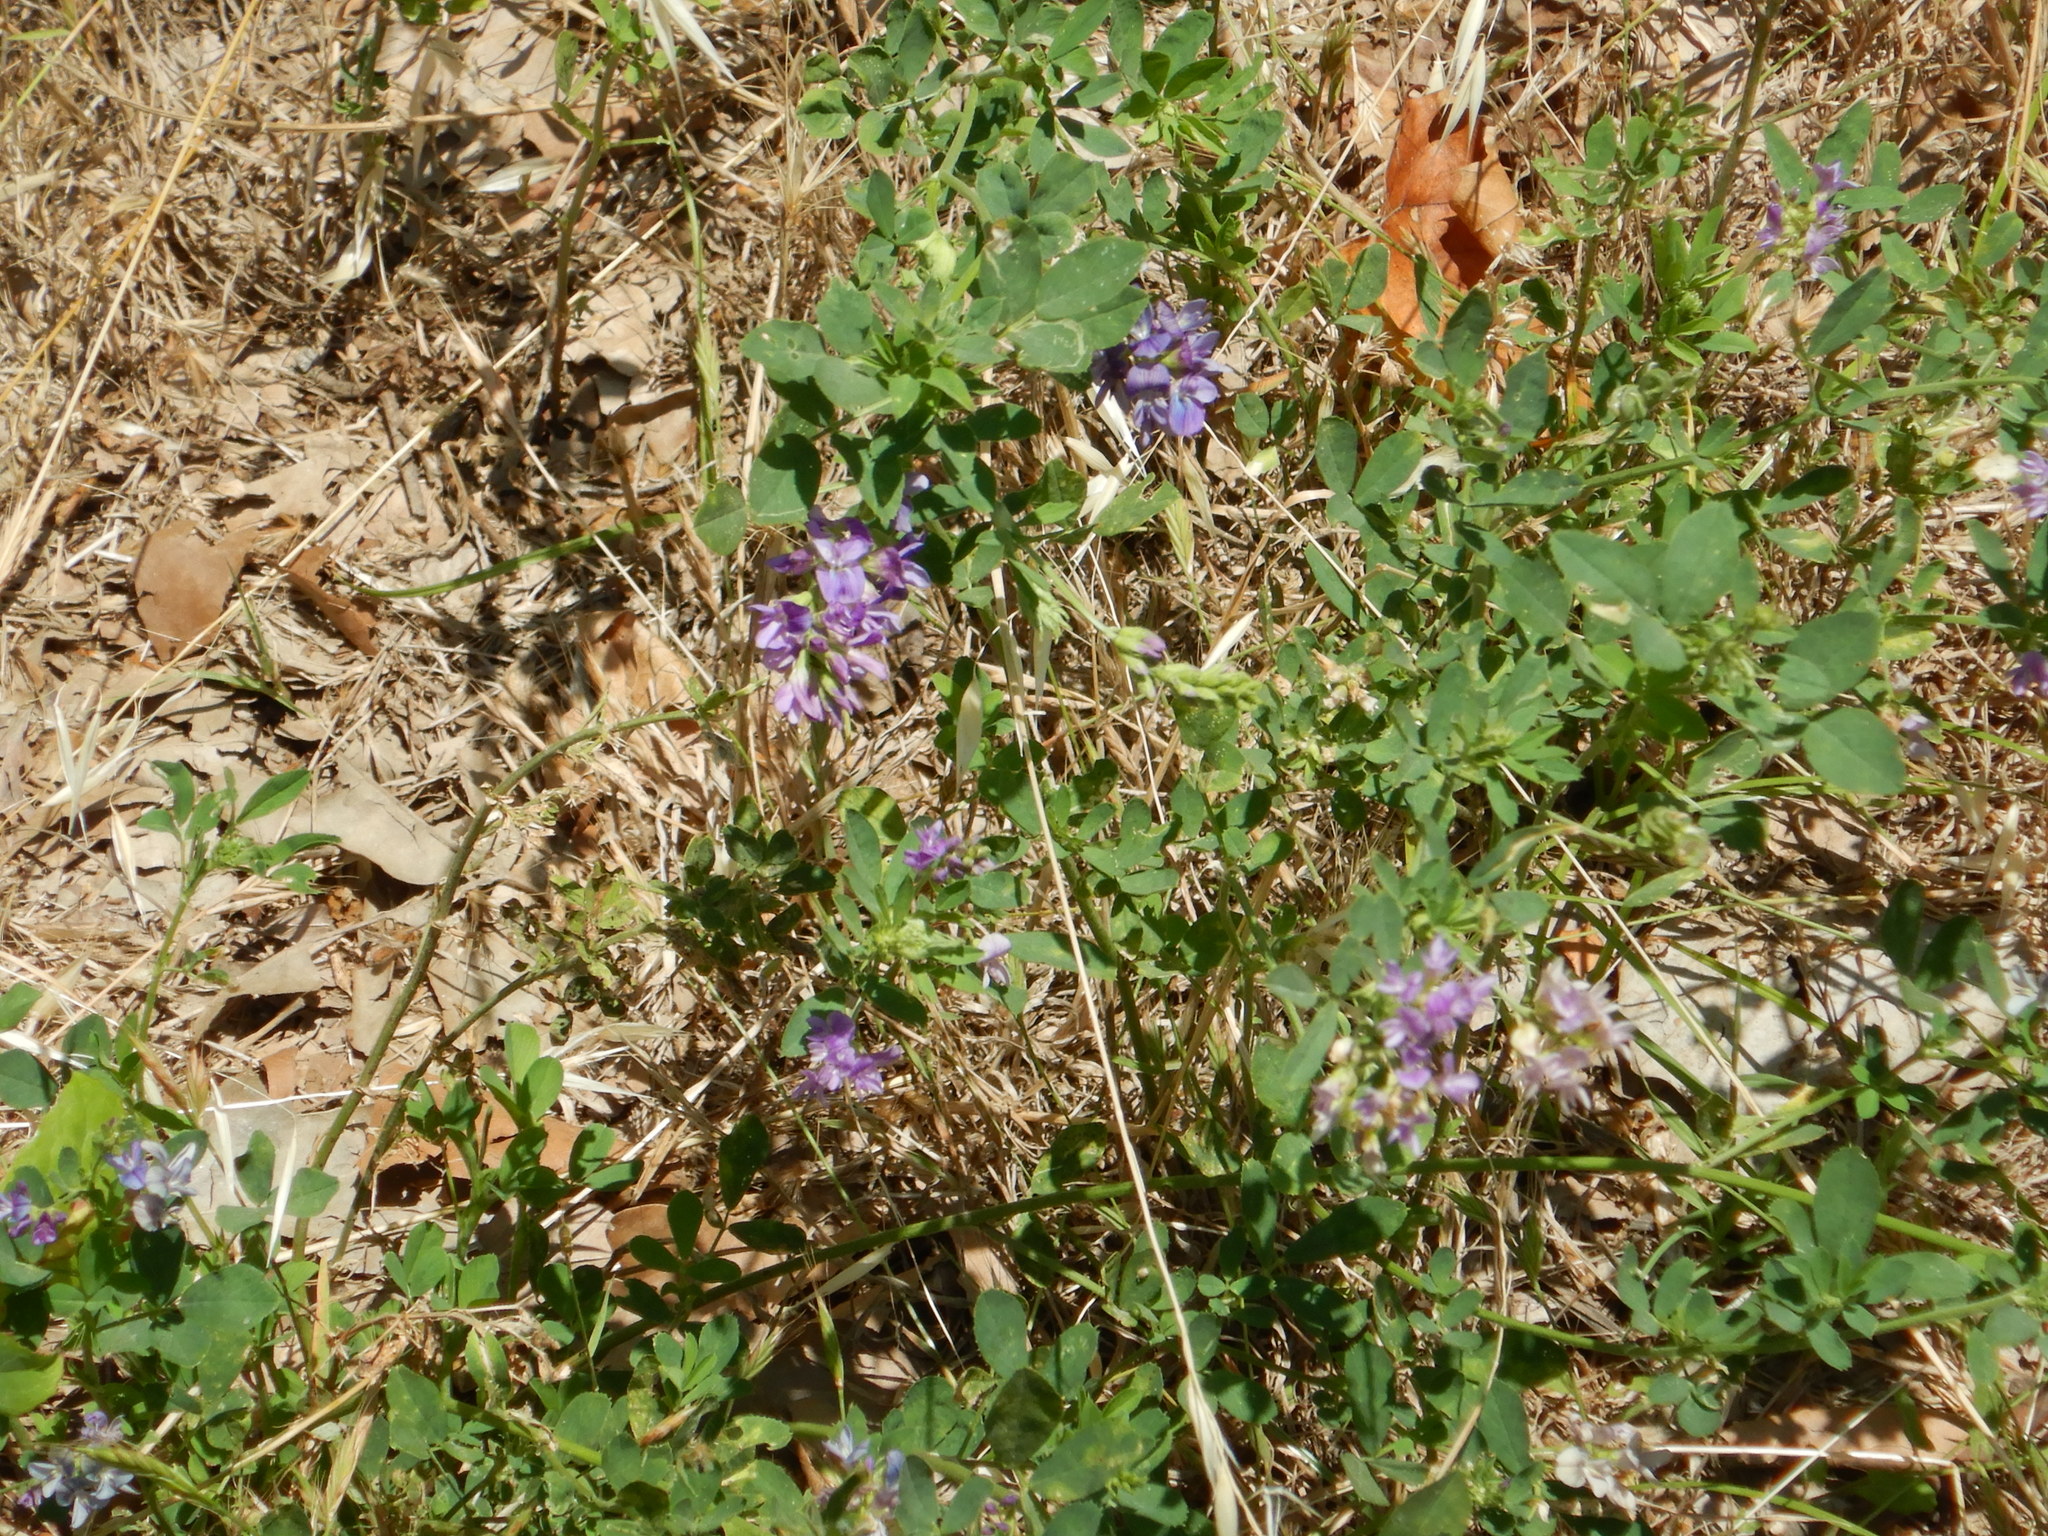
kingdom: Plantae
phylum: Tracheophyta
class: Magnoliopsida
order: Fabales
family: Fabaceae
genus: Medicago
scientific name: Medicago sativa
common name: Alfalfa
